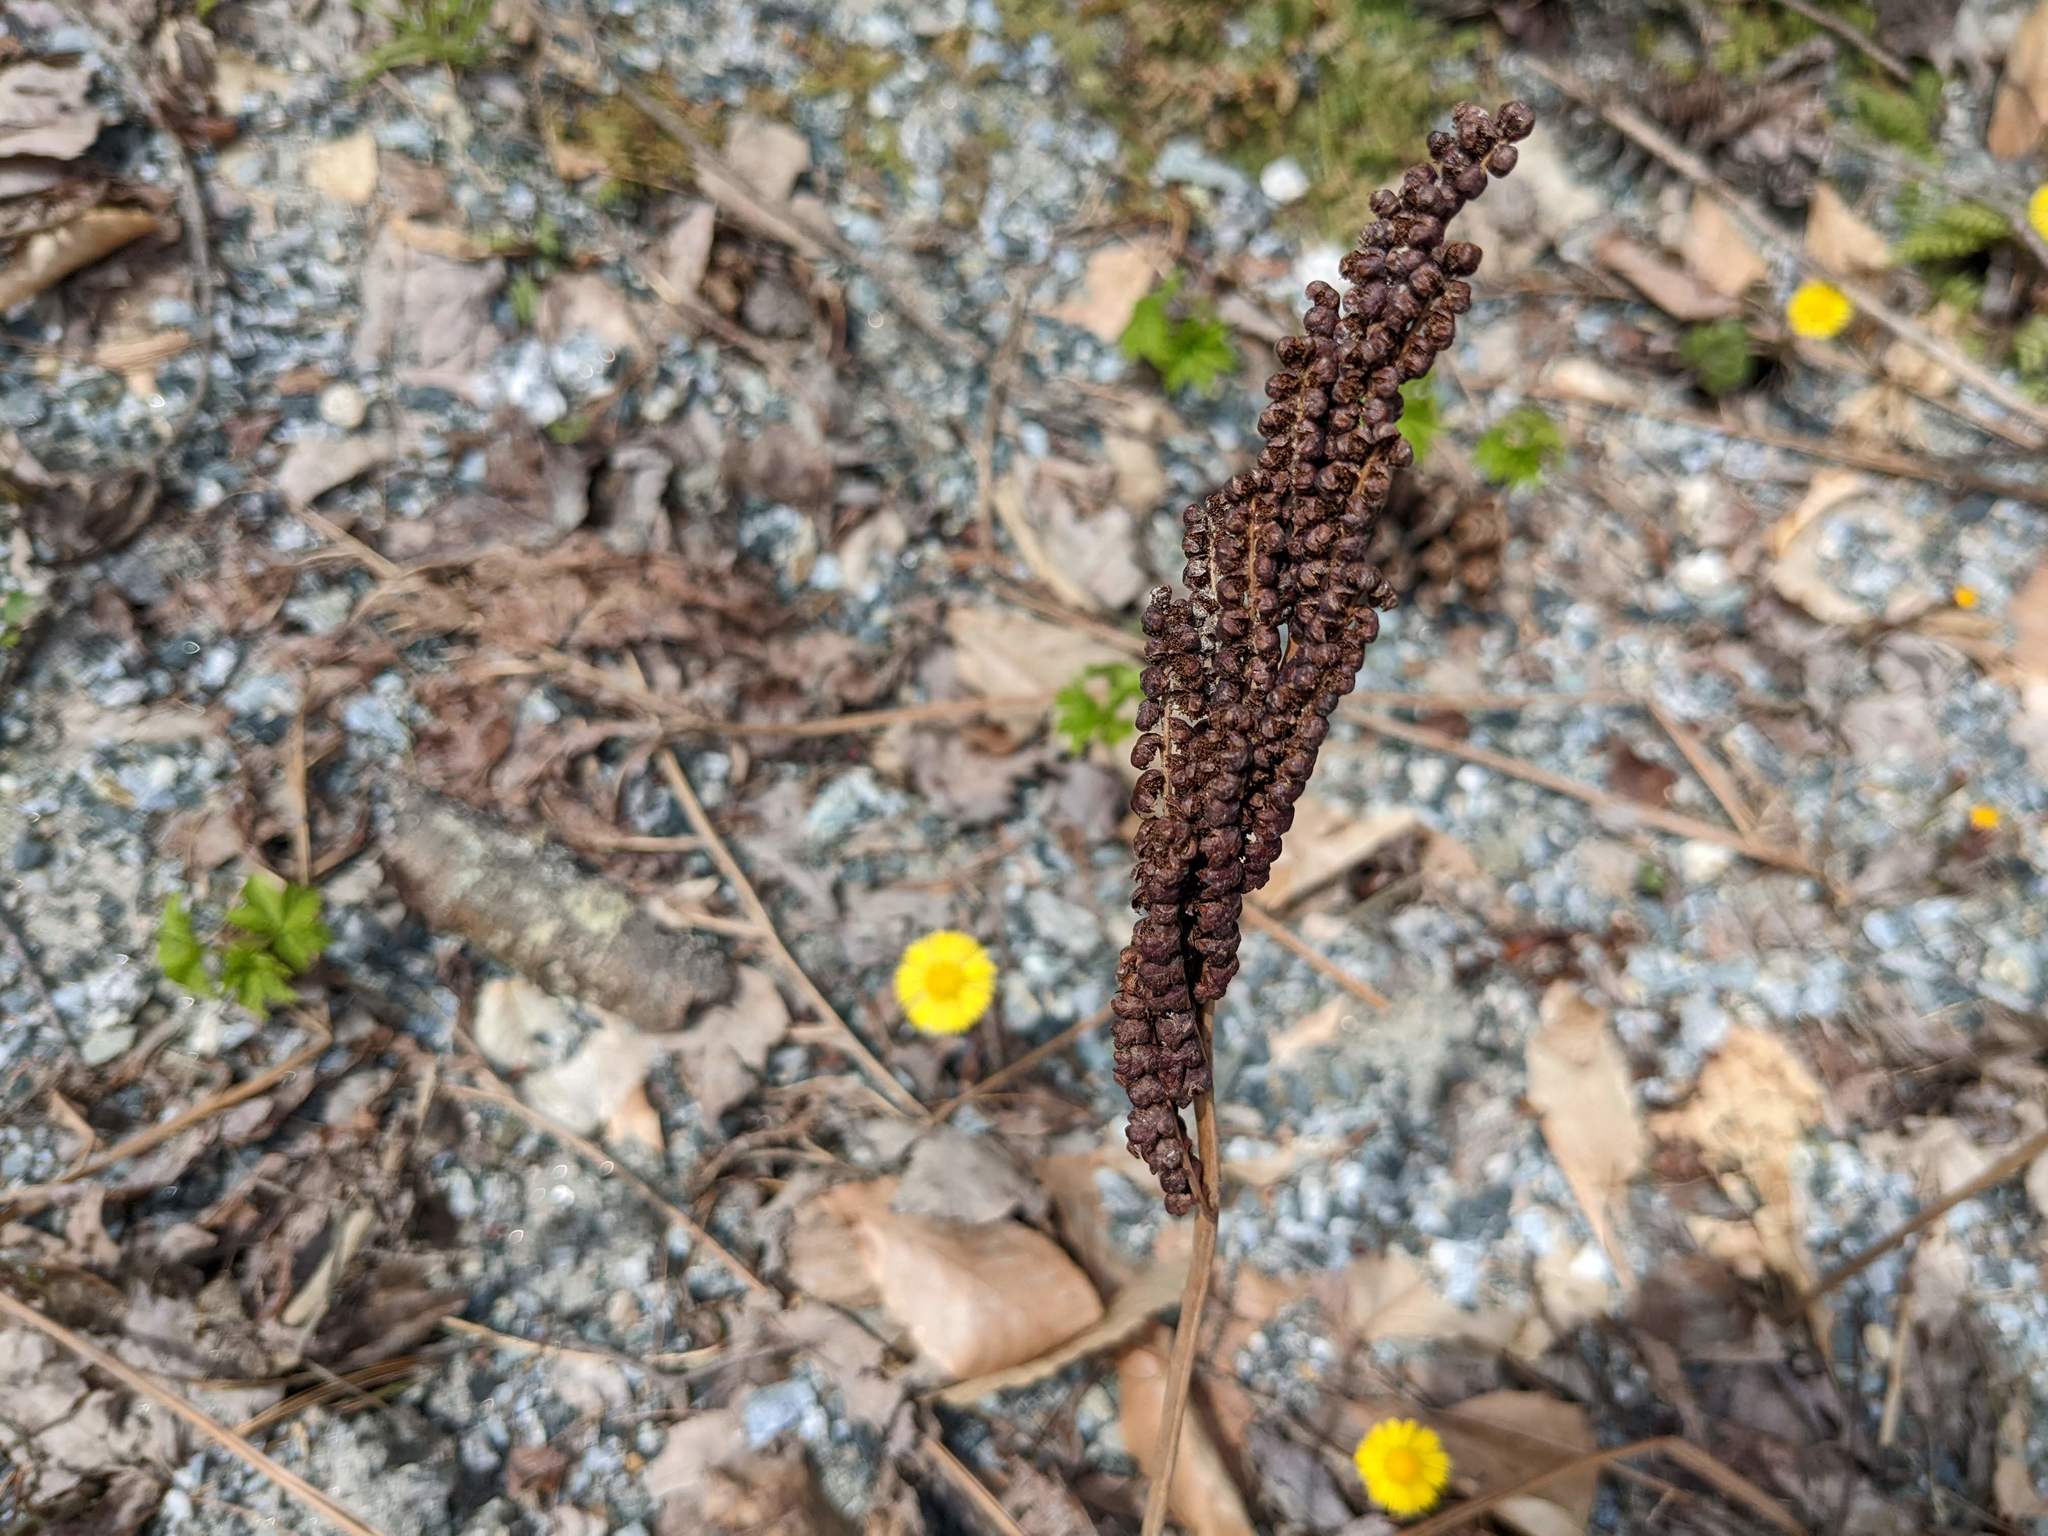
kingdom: Plantae
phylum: Tracheophyta
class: Polypodiopsida
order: Polypodiales
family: Onocleaceae
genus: Onoclea
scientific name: Onoclea sensibilis
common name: Sensitive fern
